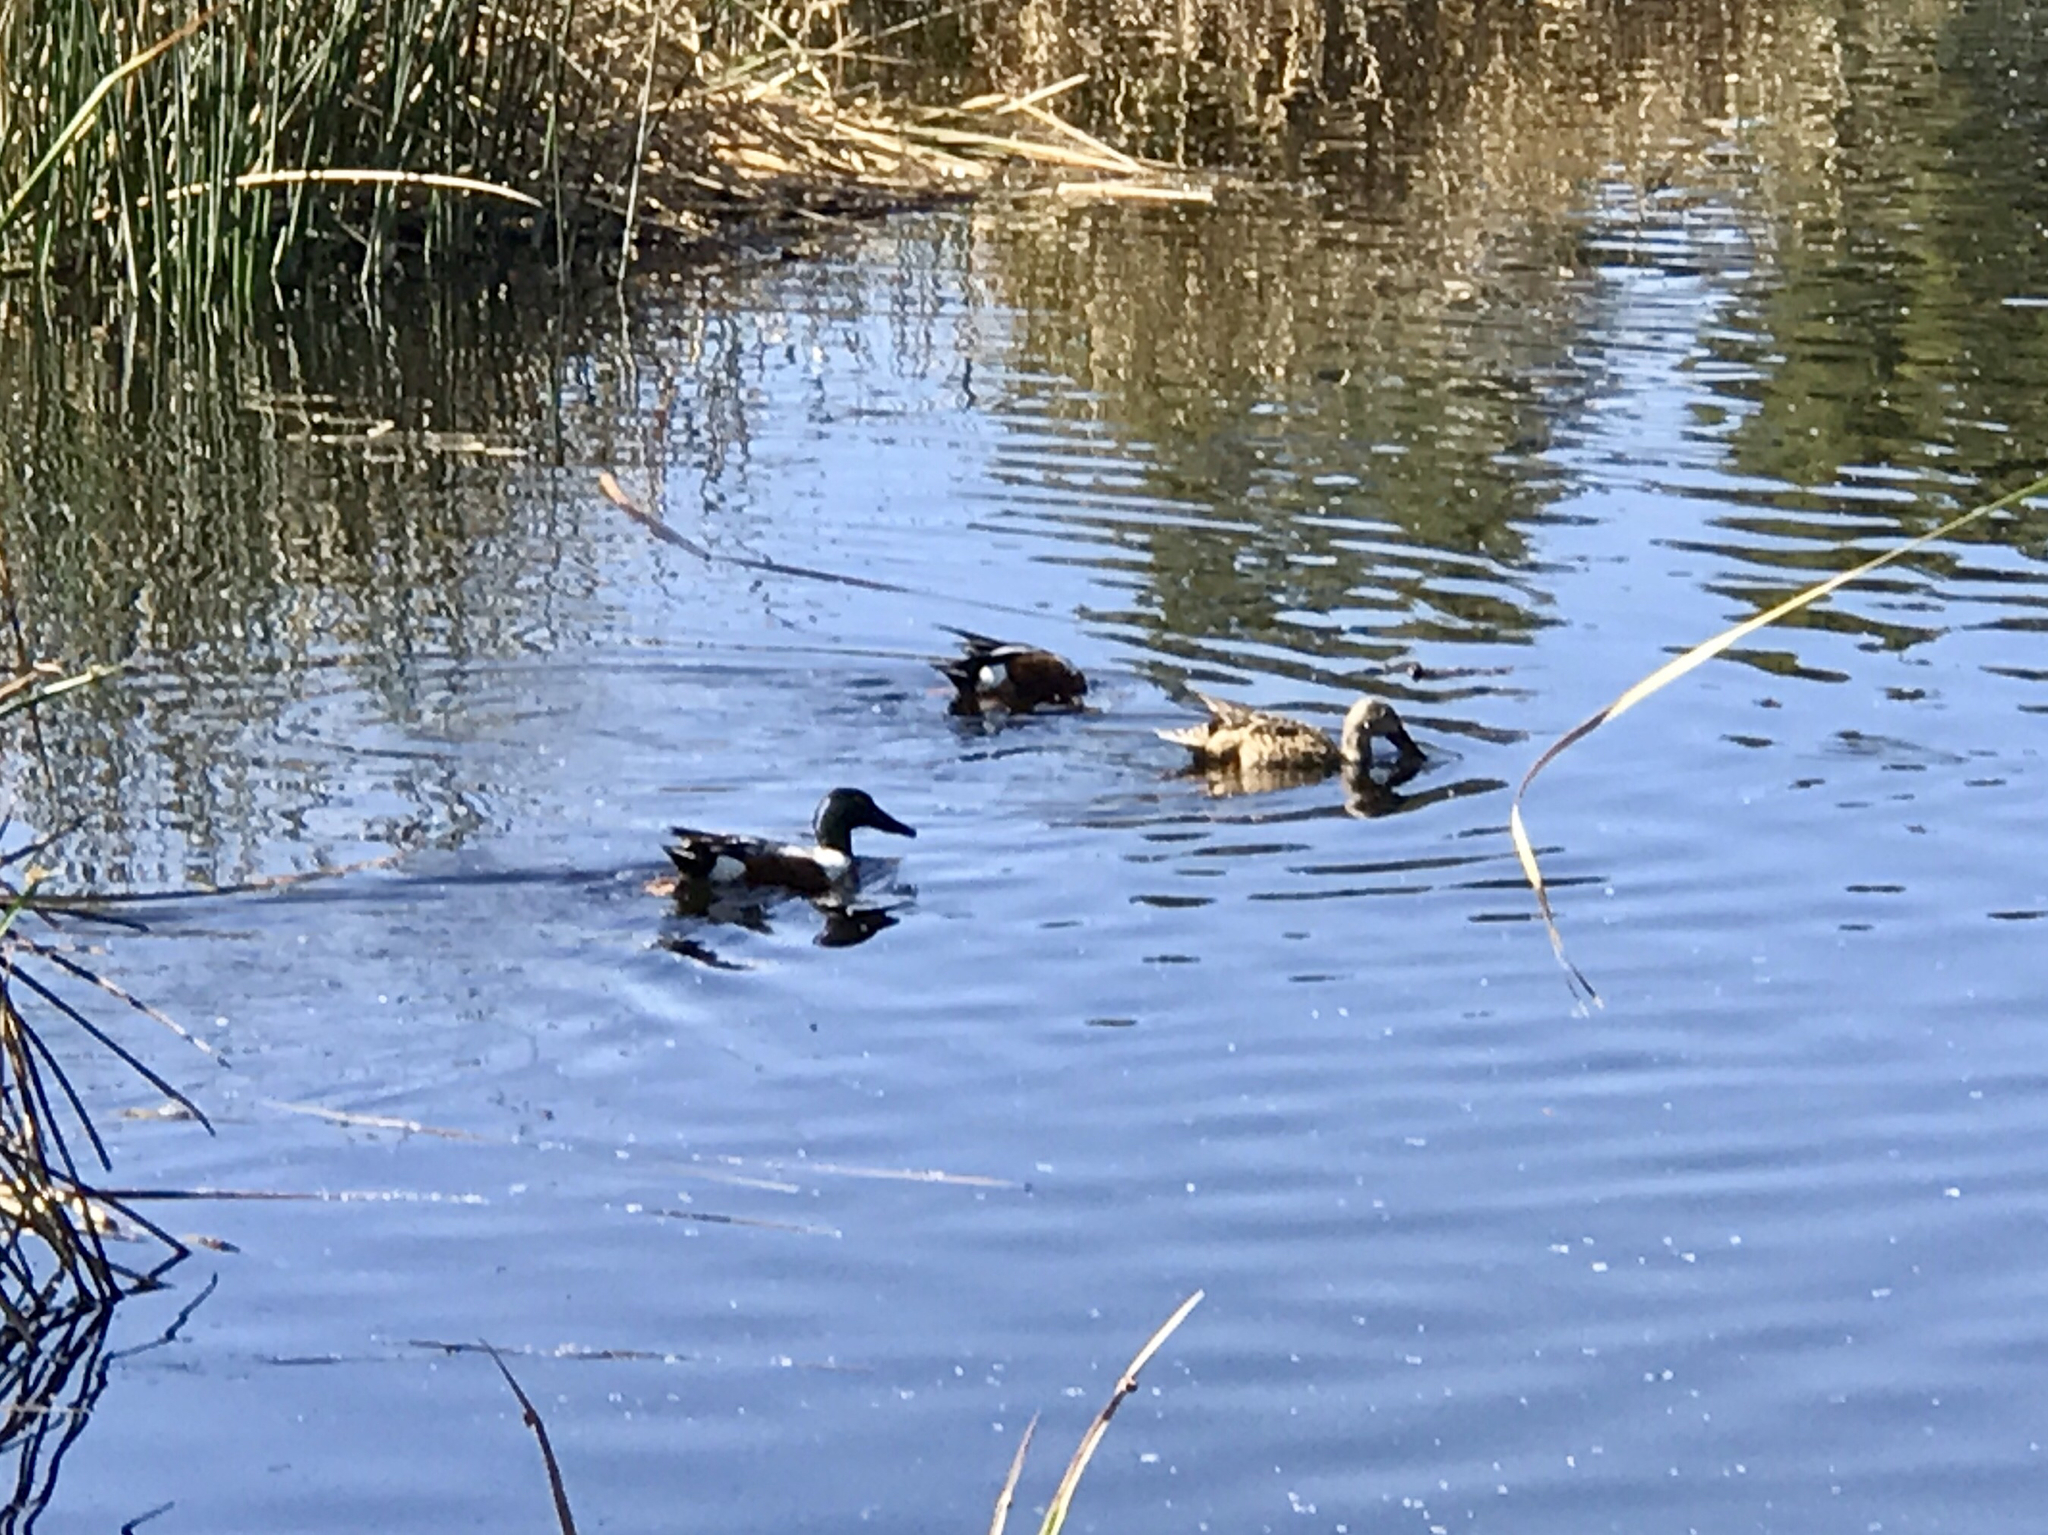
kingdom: Animalia
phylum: Chordata
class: Aves
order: Anseriformes
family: Anatidae
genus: Spatula
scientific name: Spatula clypeata
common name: Northern shoveler
